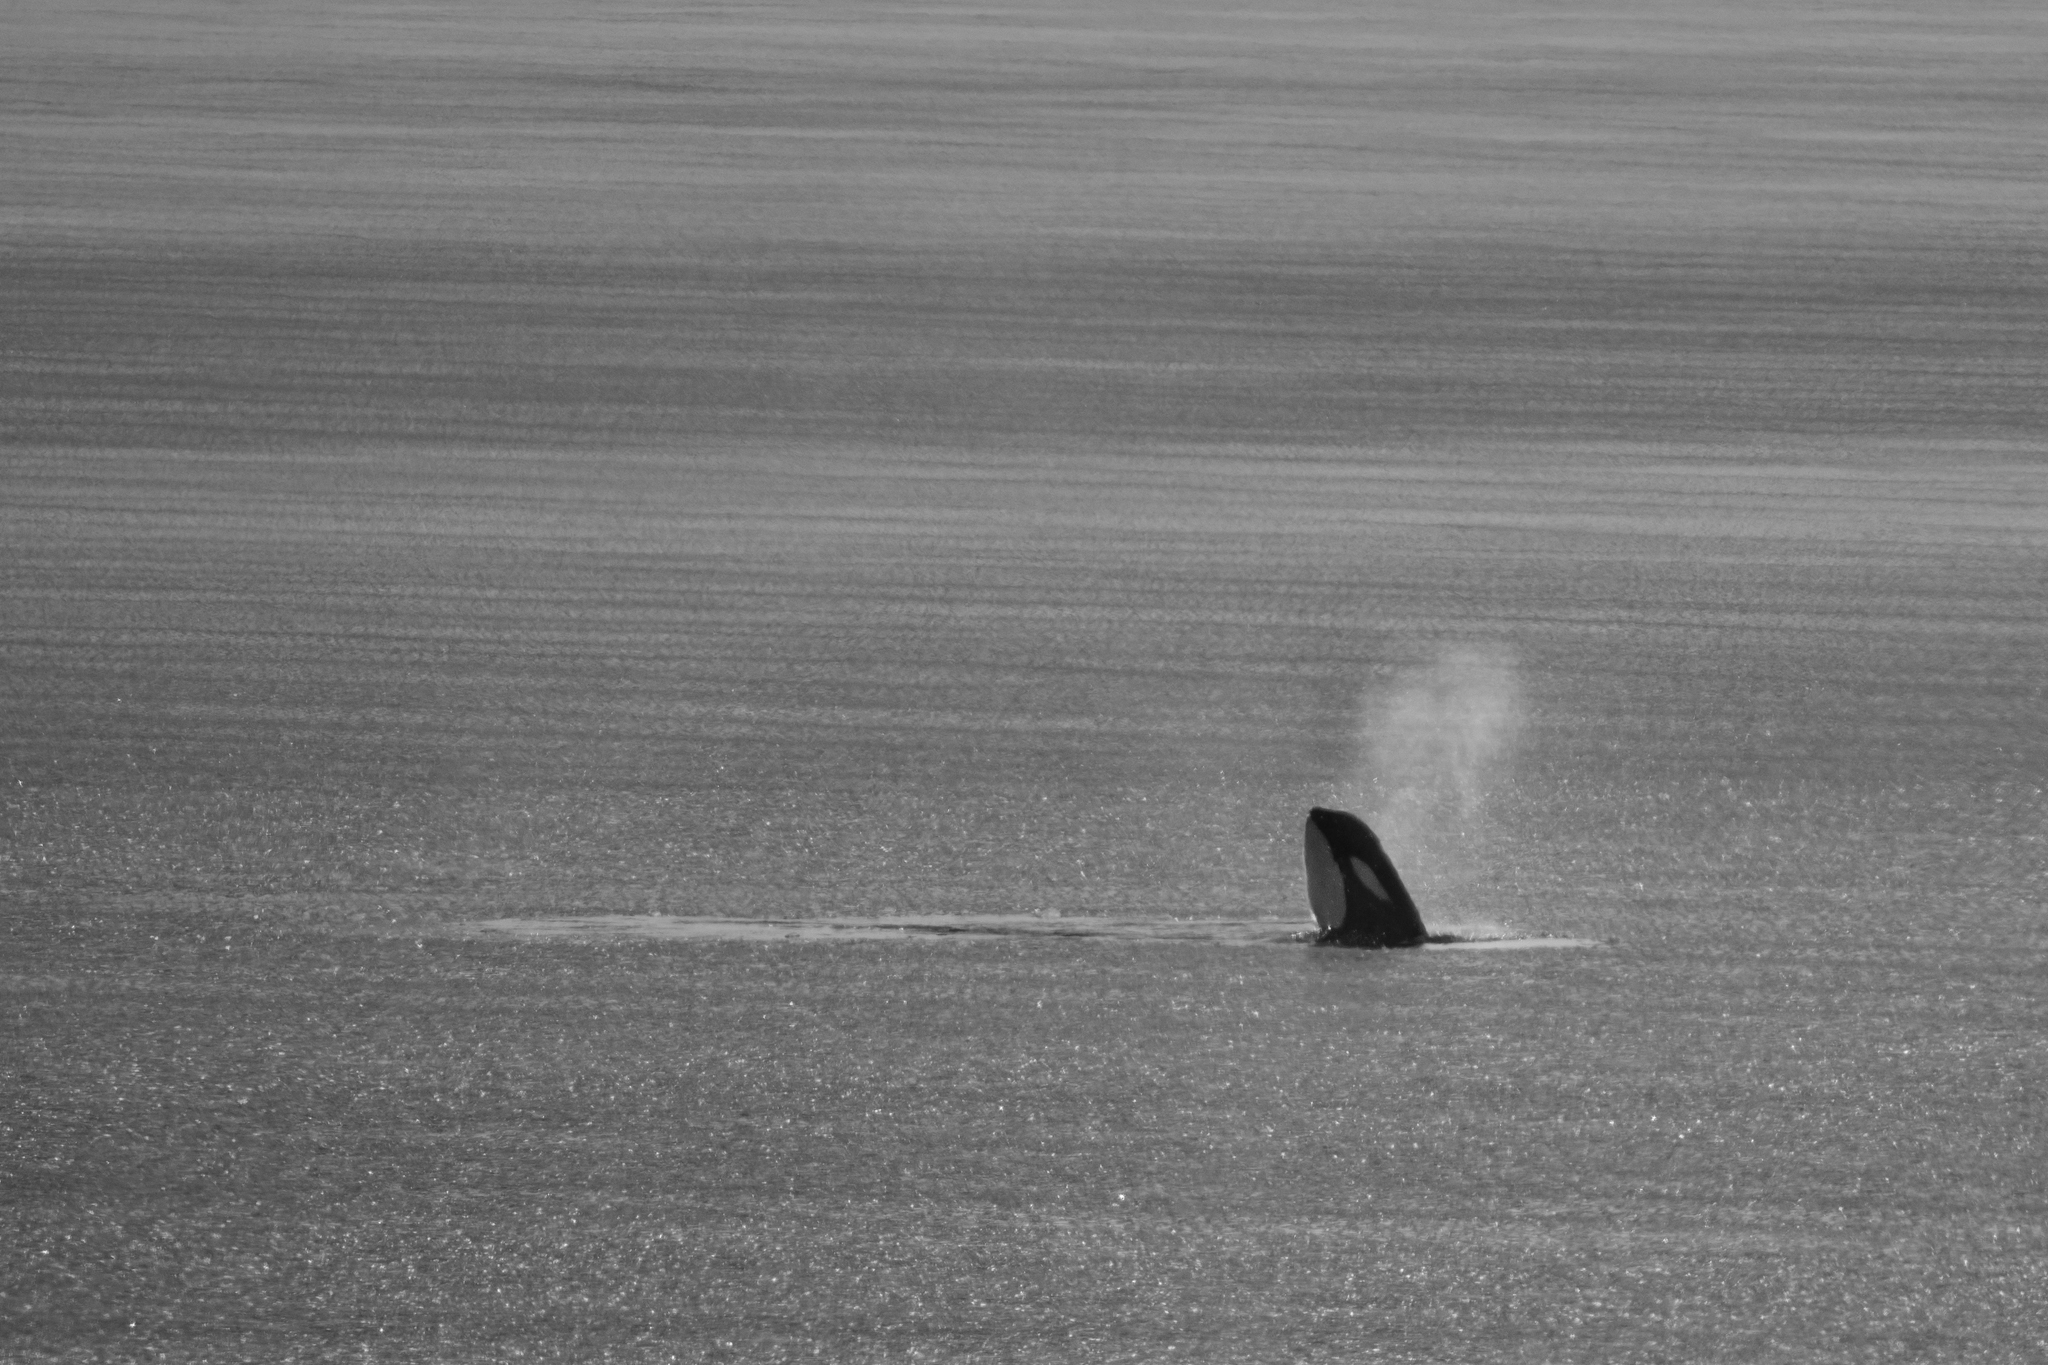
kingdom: Animalia
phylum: Chordata
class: Mammalia
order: Cetacea
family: Delphinidae
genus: Orcinus
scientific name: Orcinus orca
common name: Killer whale
